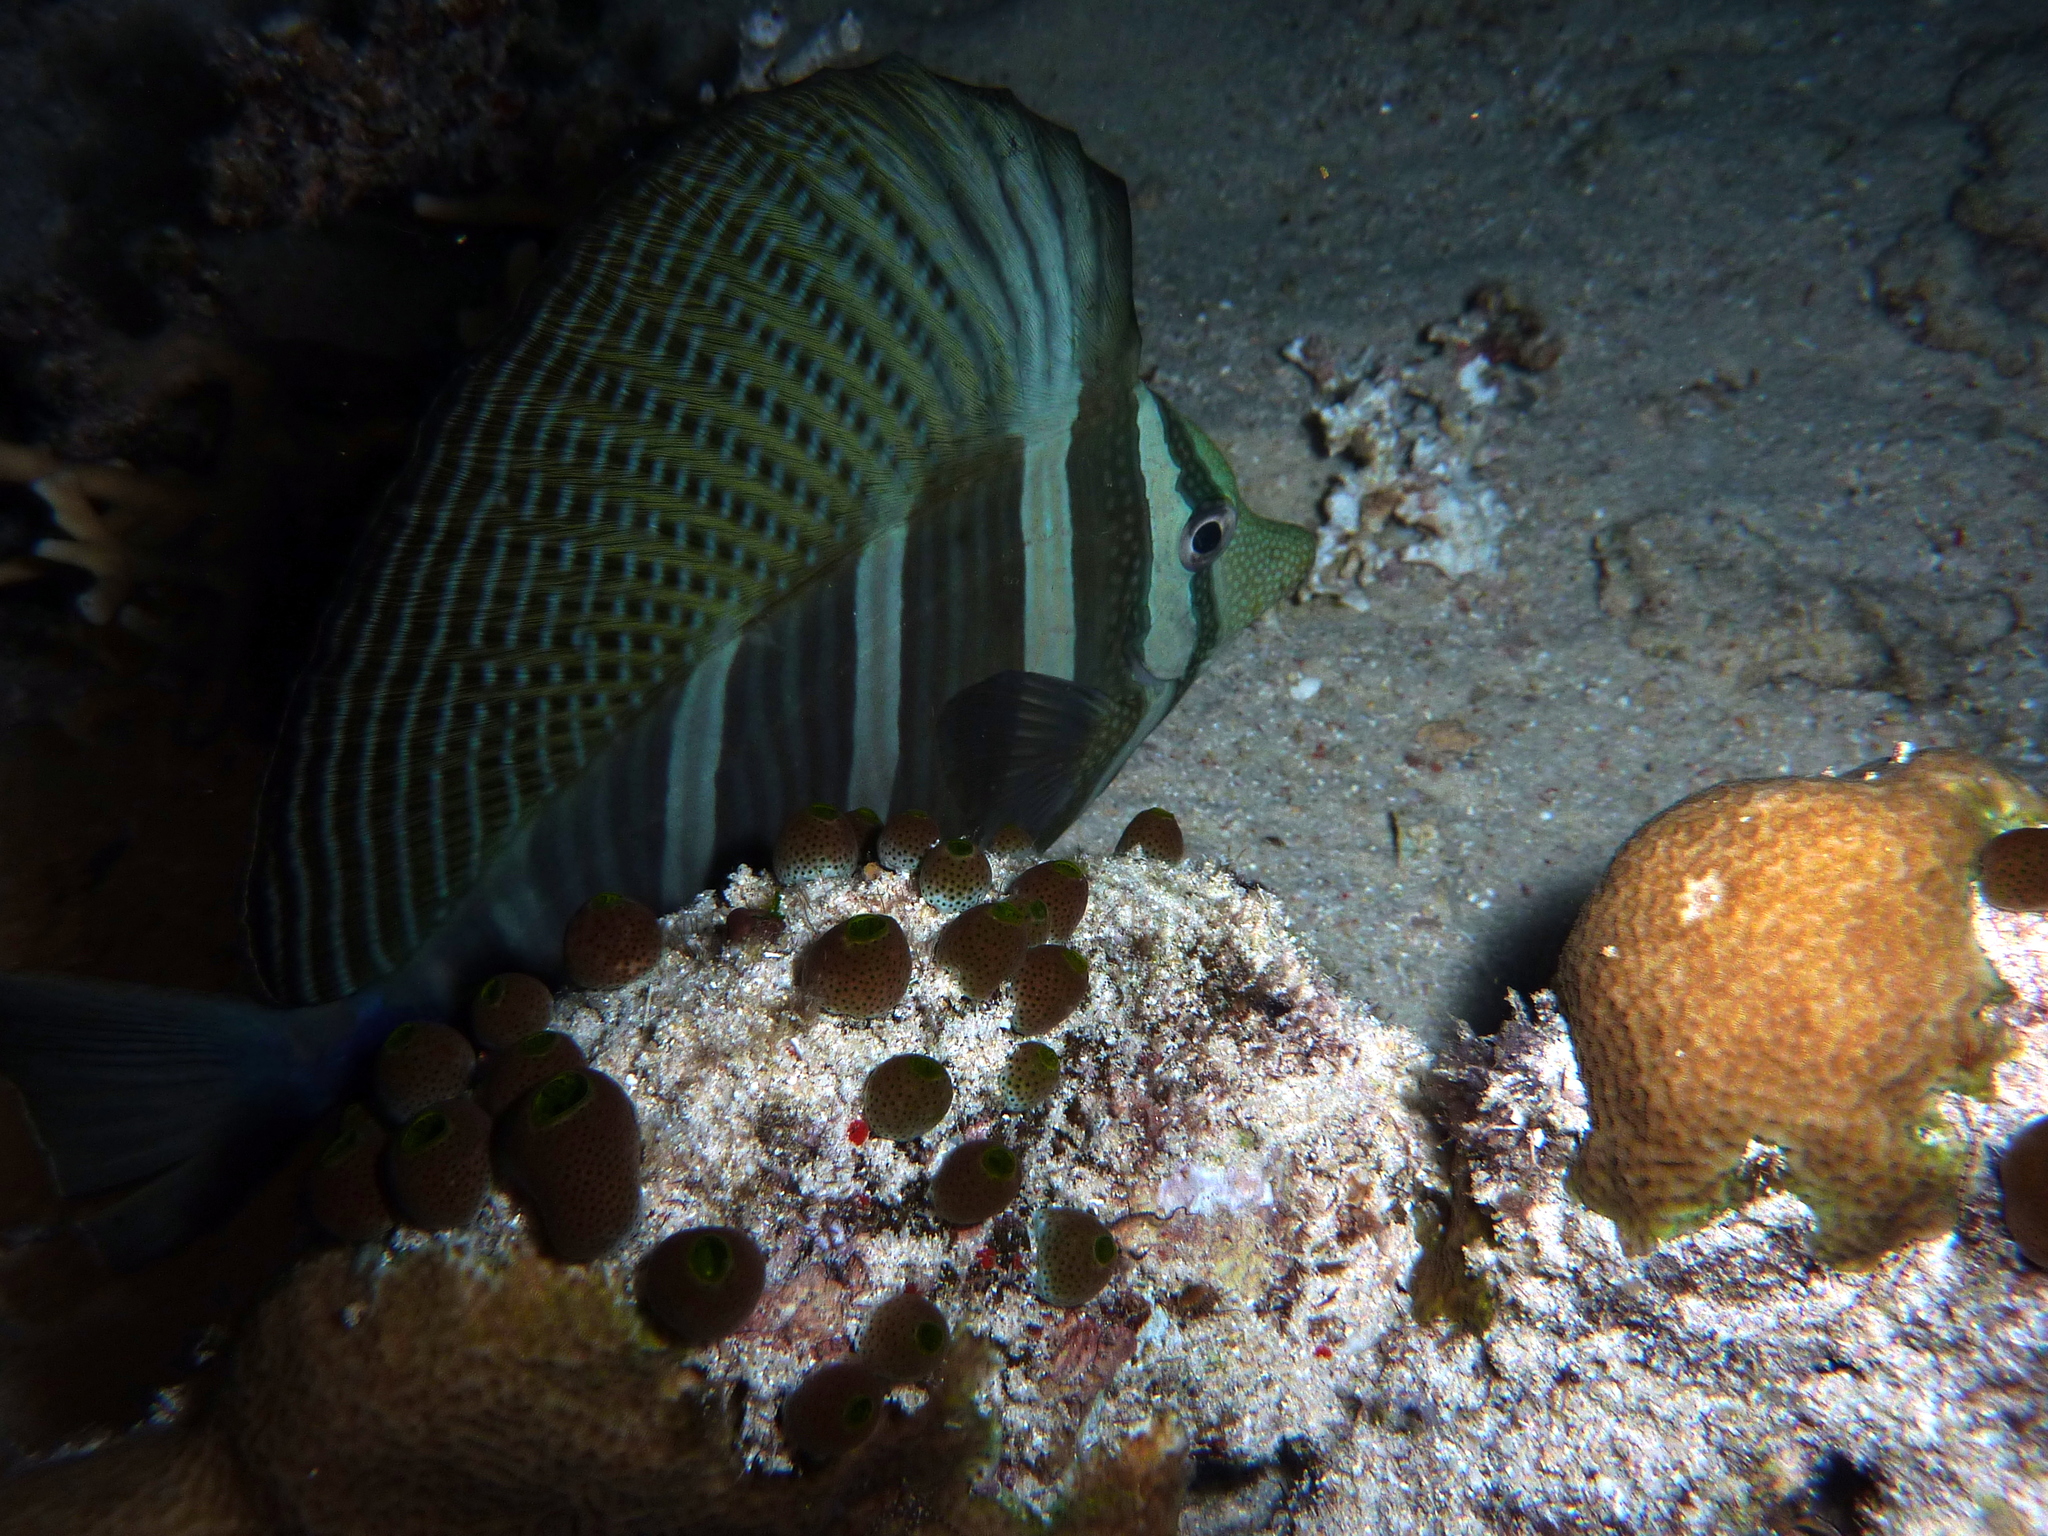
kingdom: Animalia
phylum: Chordata
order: Perciformes
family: Acanthuridae
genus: Zebrasoma
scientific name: Zebrasoma veliferum
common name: Sailfin surgeonfish
